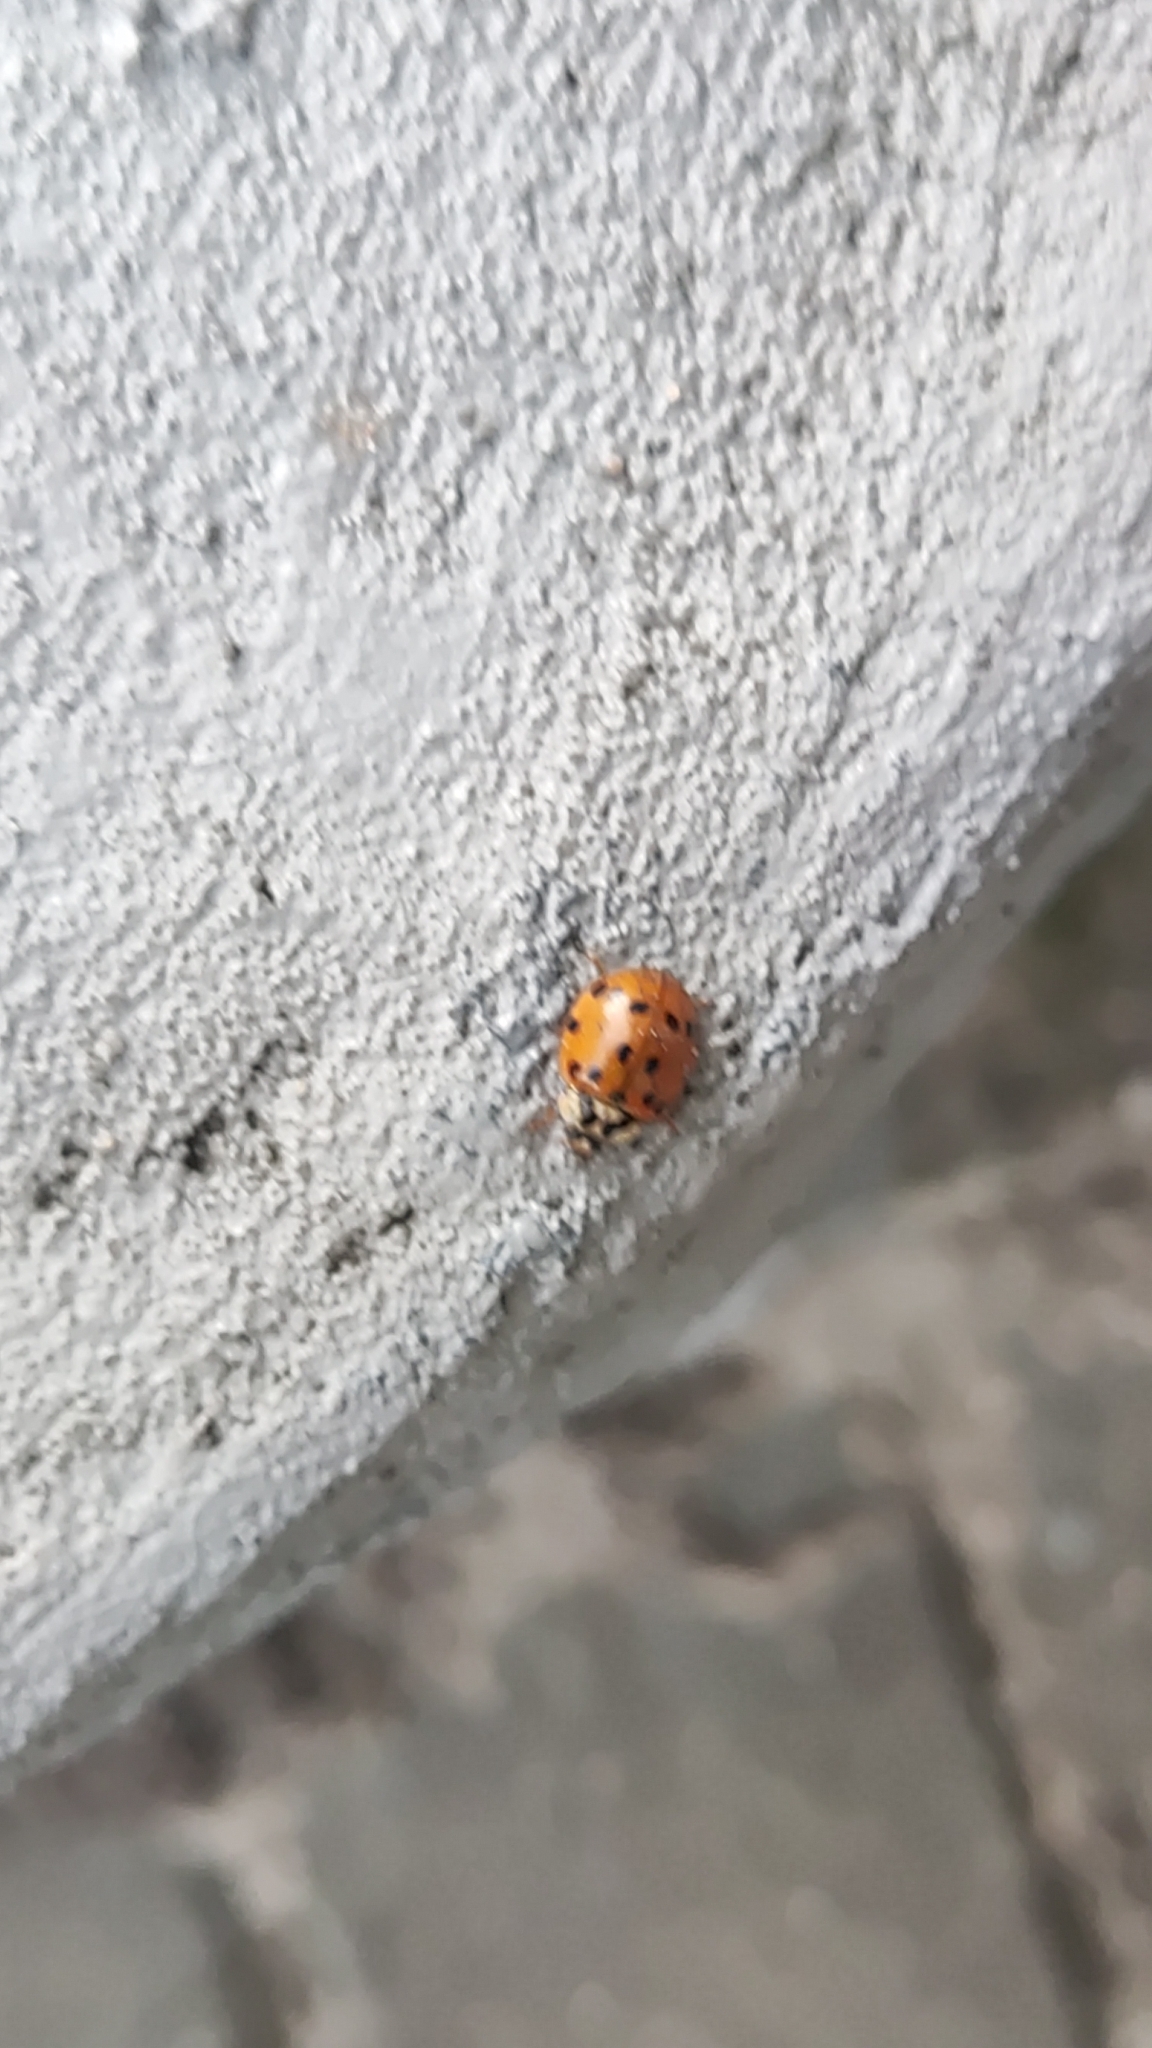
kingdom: Animalia
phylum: Arthropoda
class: Insecta
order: Coleoptera
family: Coccinellidae
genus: Harmonia
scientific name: Harmonia axyridis
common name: Harlequin ladybird
